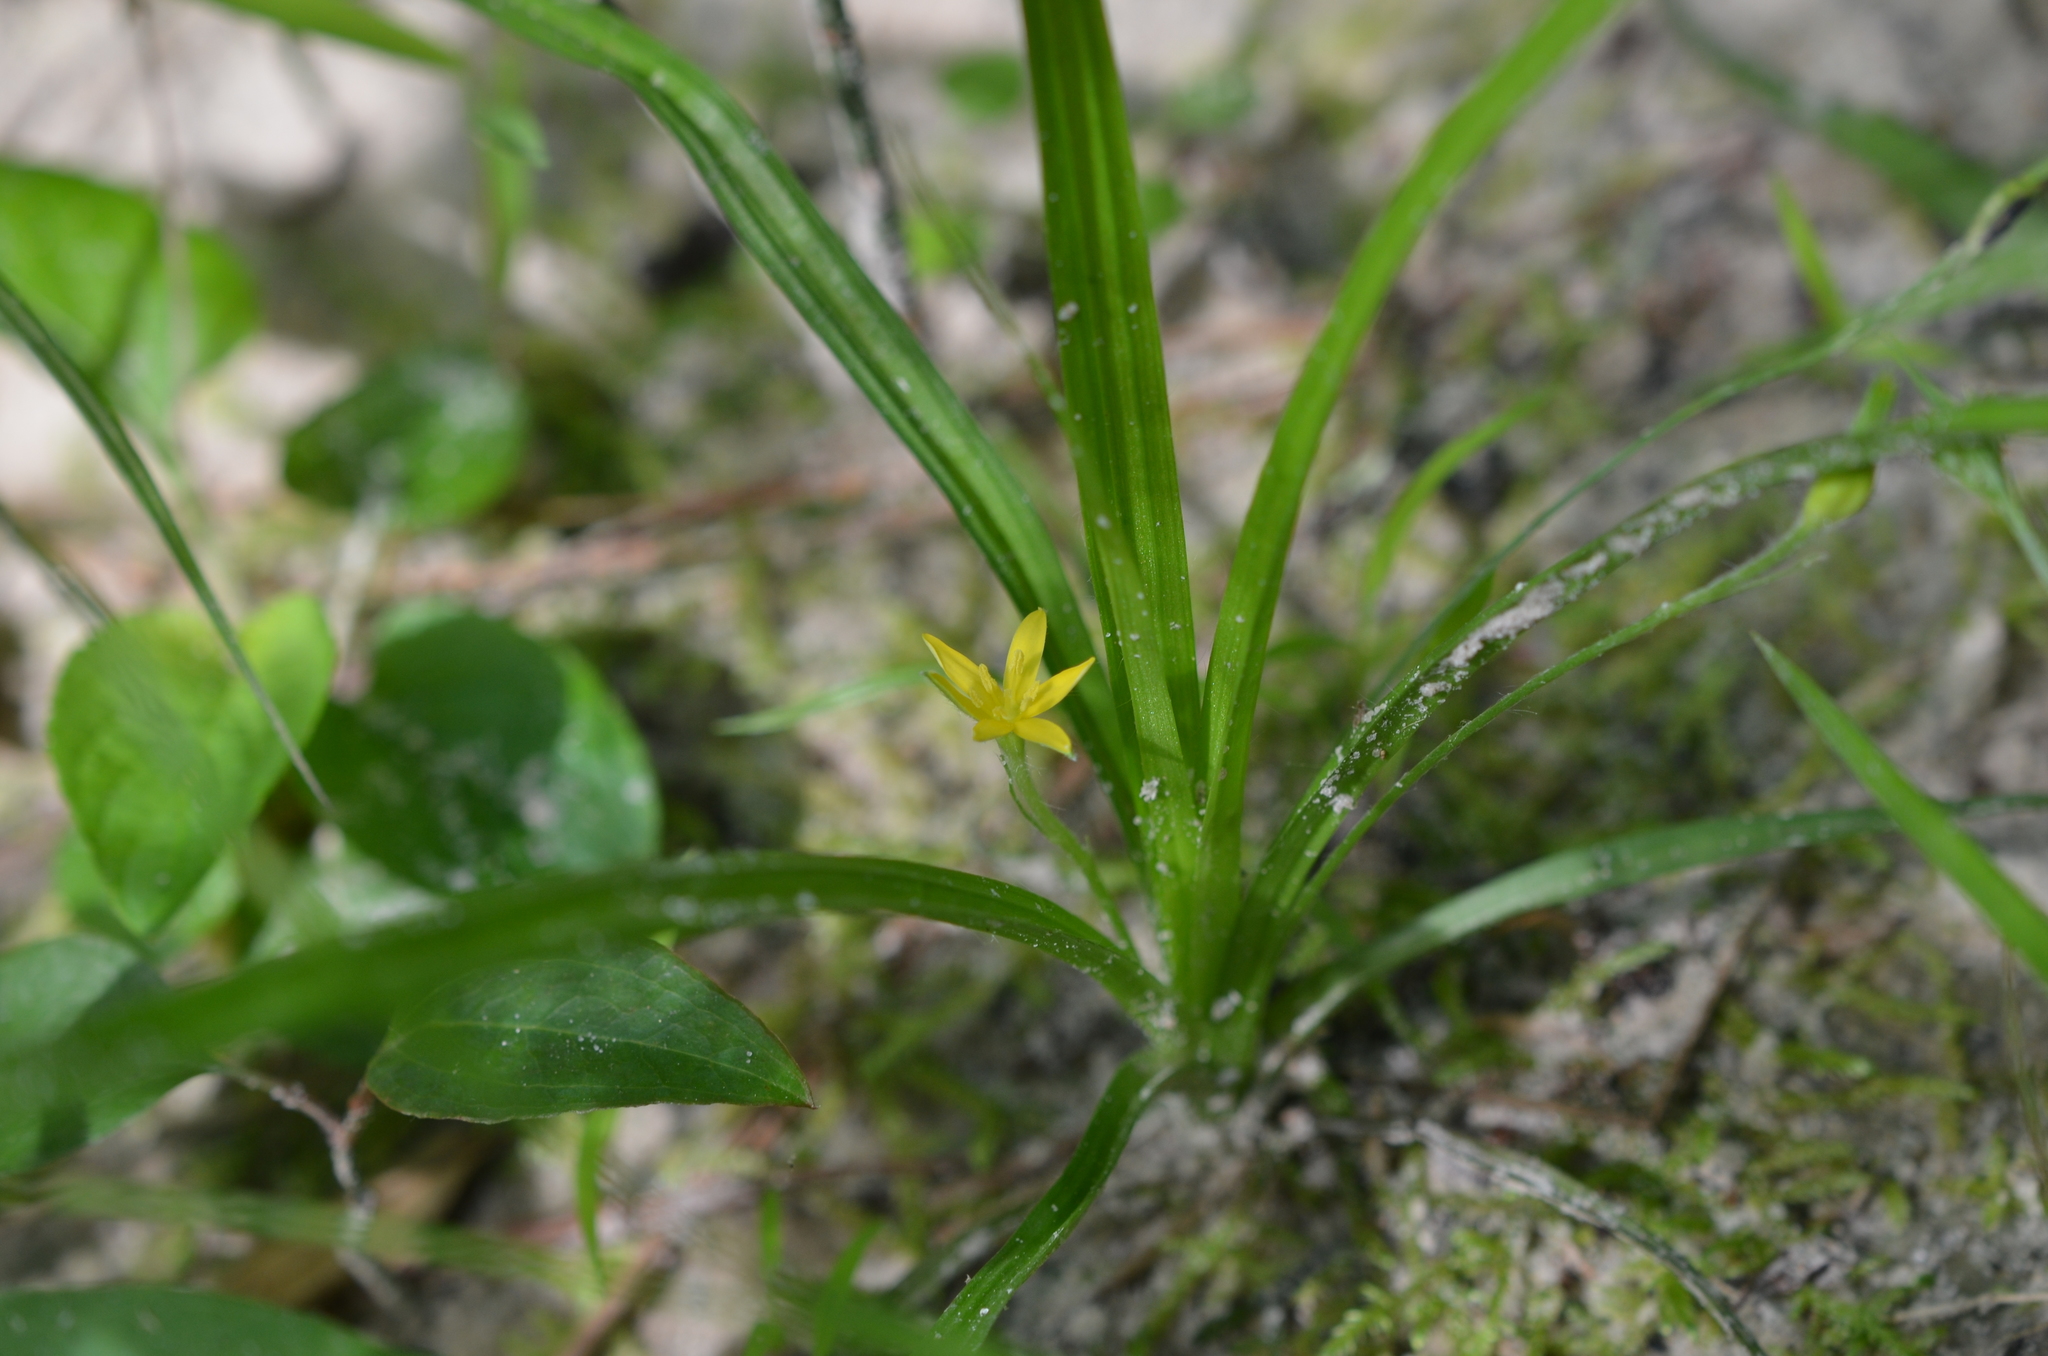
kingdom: Plantae
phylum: Tracheophyta
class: Liliopsida
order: Asparagales
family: Hypoxidaceae
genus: Hypoxis
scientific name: Hypoxis hirsuta
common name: Common goldstar
